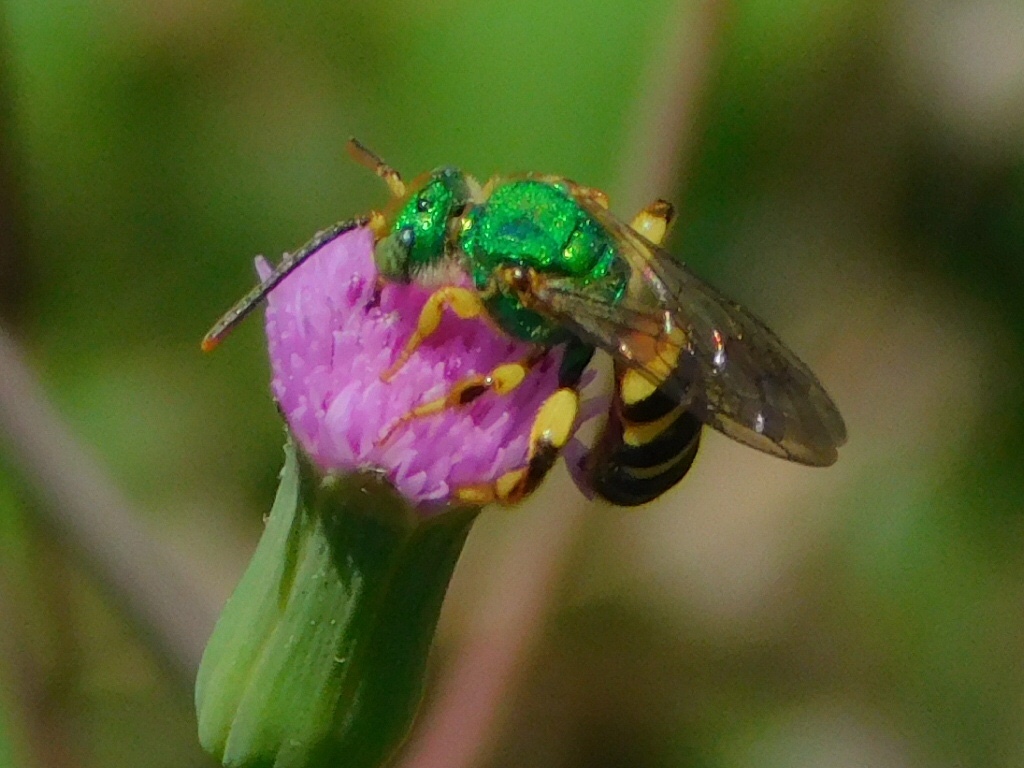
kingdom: Animalia
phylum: Arthropoda
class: Insecta
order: Hymenoptera
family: Halictidae
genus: Agapostemon
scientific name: Agapostemon splendens
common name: Brown-winged striped sweat bee
